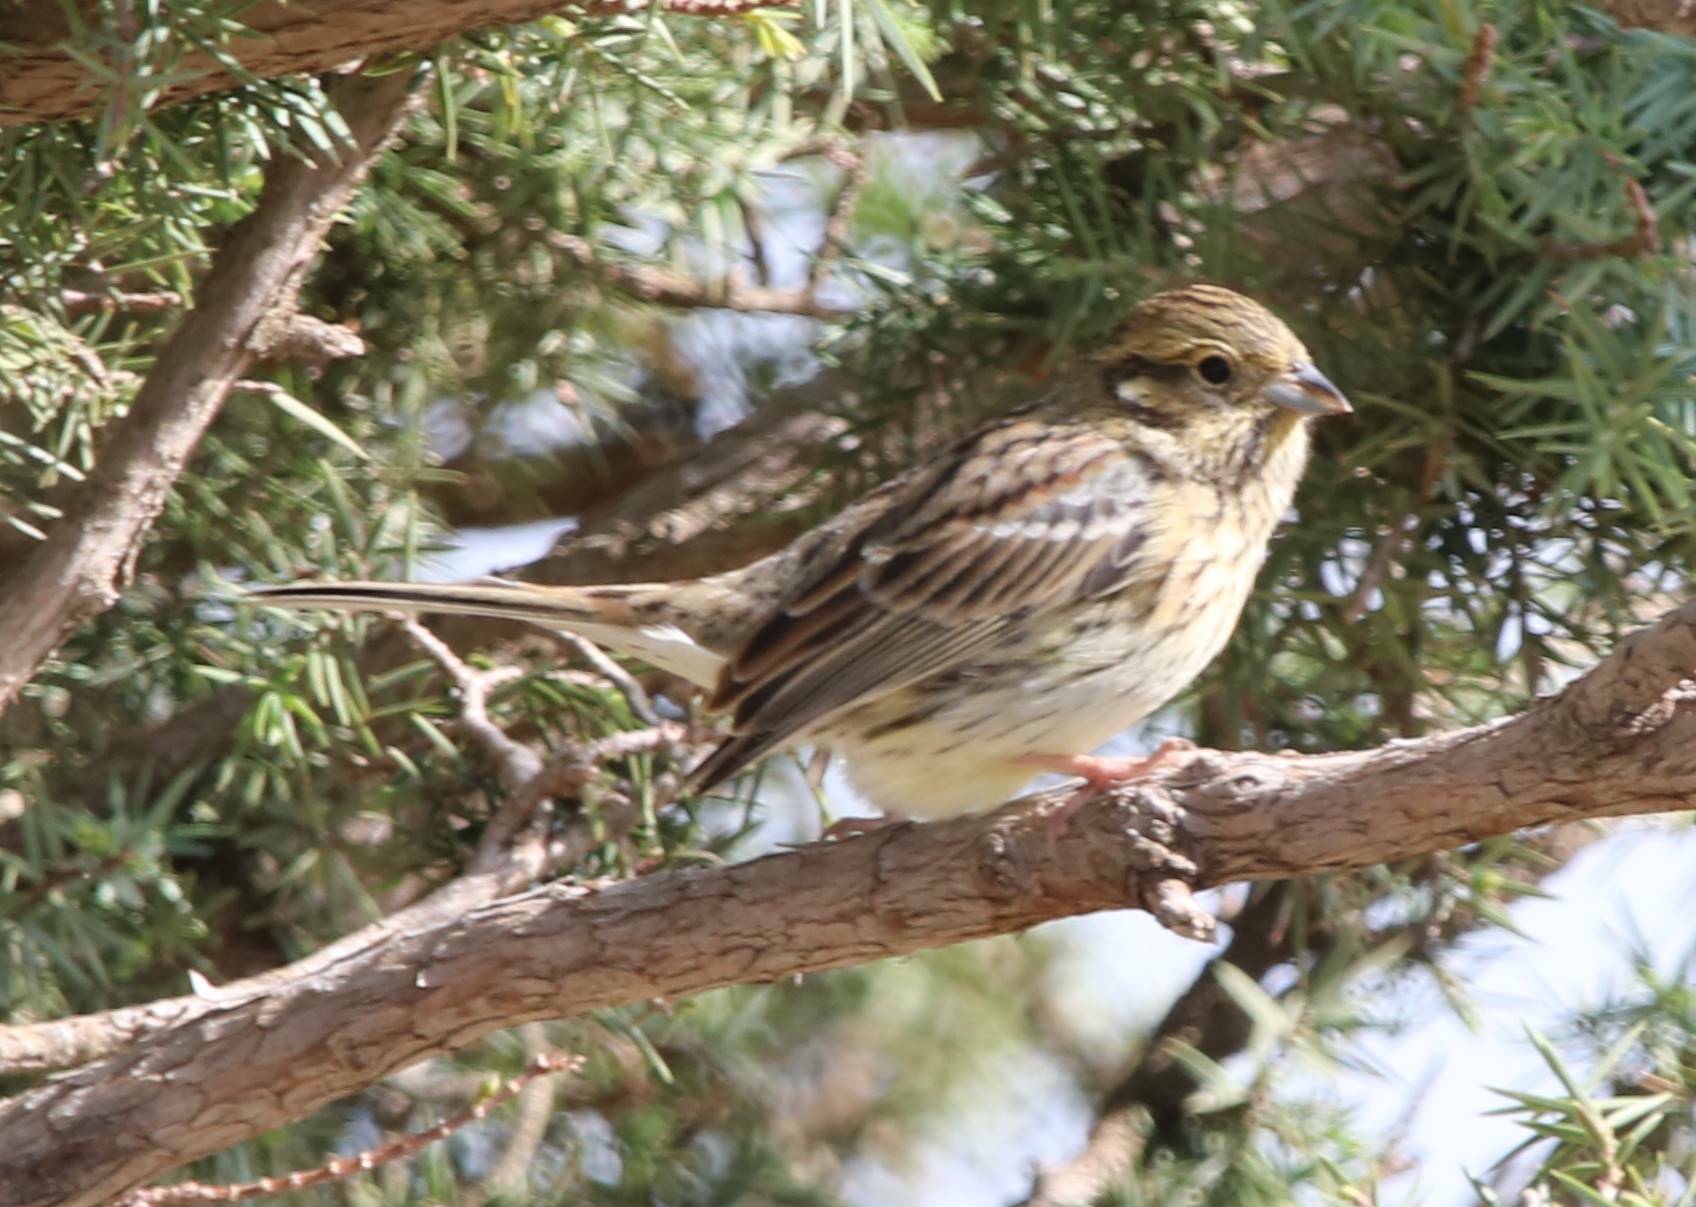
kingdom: Animalia
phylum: Chordata
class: Aves
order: Passeriformes
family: Emberizidae
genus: Emberiza
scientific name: Emberiza cirlus
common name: Cirl bunting
